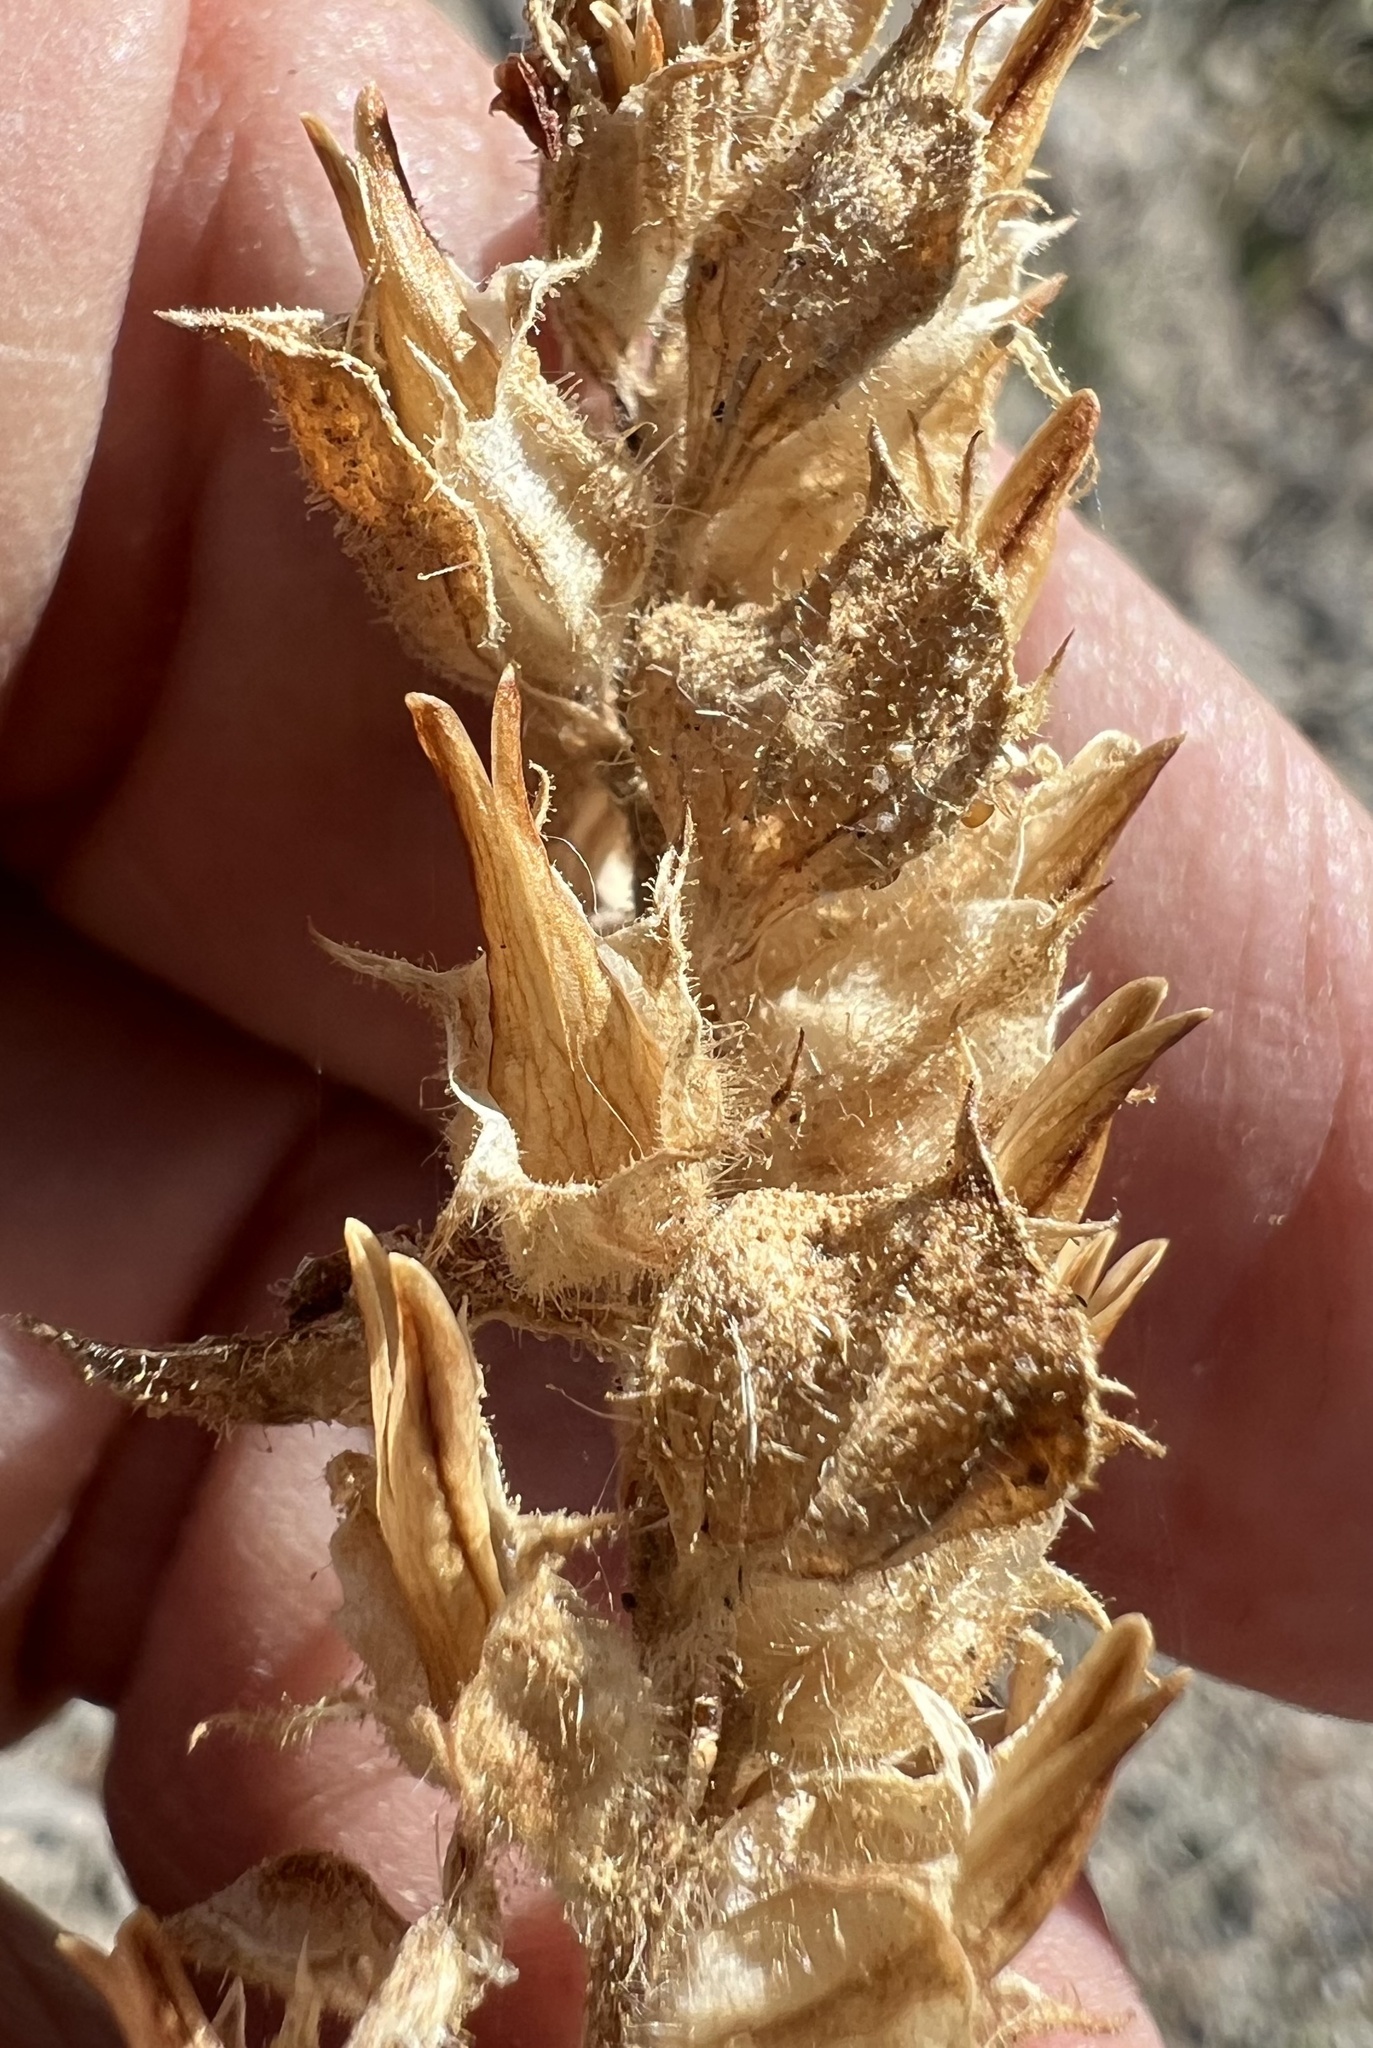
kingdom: Plantae
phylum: Tracheophyta
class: Magnoliopsida
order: Lamiales
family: Phrymaceae
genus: Diplacus
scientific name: Diplacus bigelovii
